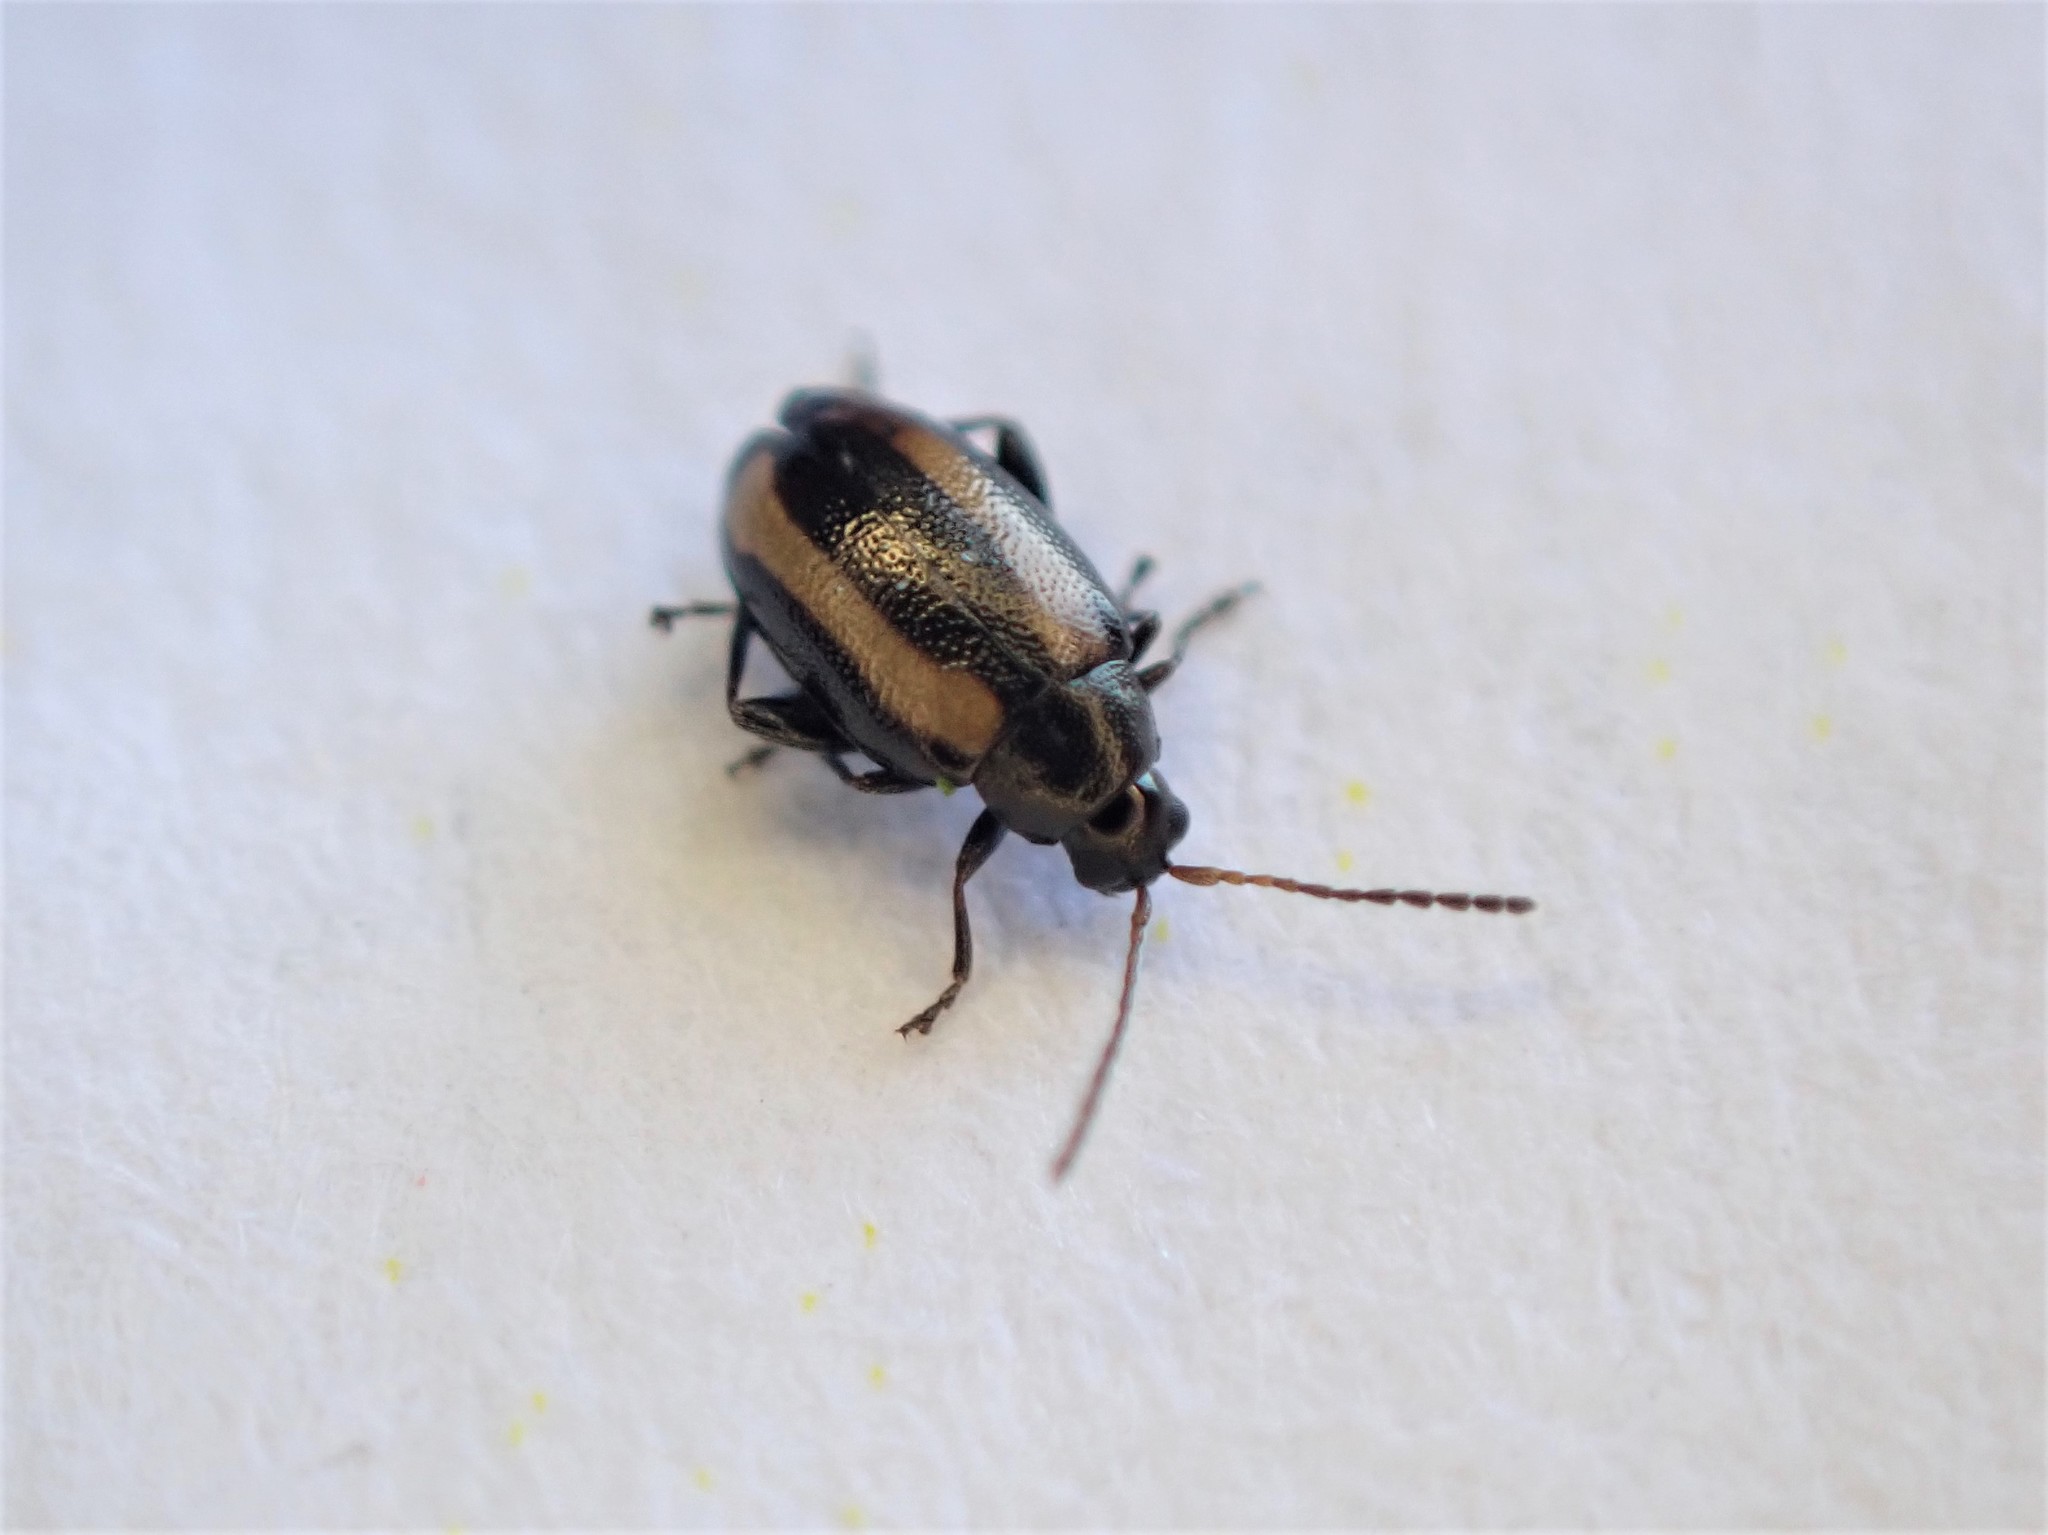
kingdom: Animalia
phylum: Arthropoda
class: Insecta
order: Coleoptera
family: Chrysomelidae
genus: Phyllotreta
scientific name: Phyllotreta undulata
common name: Turnip flea beetle
